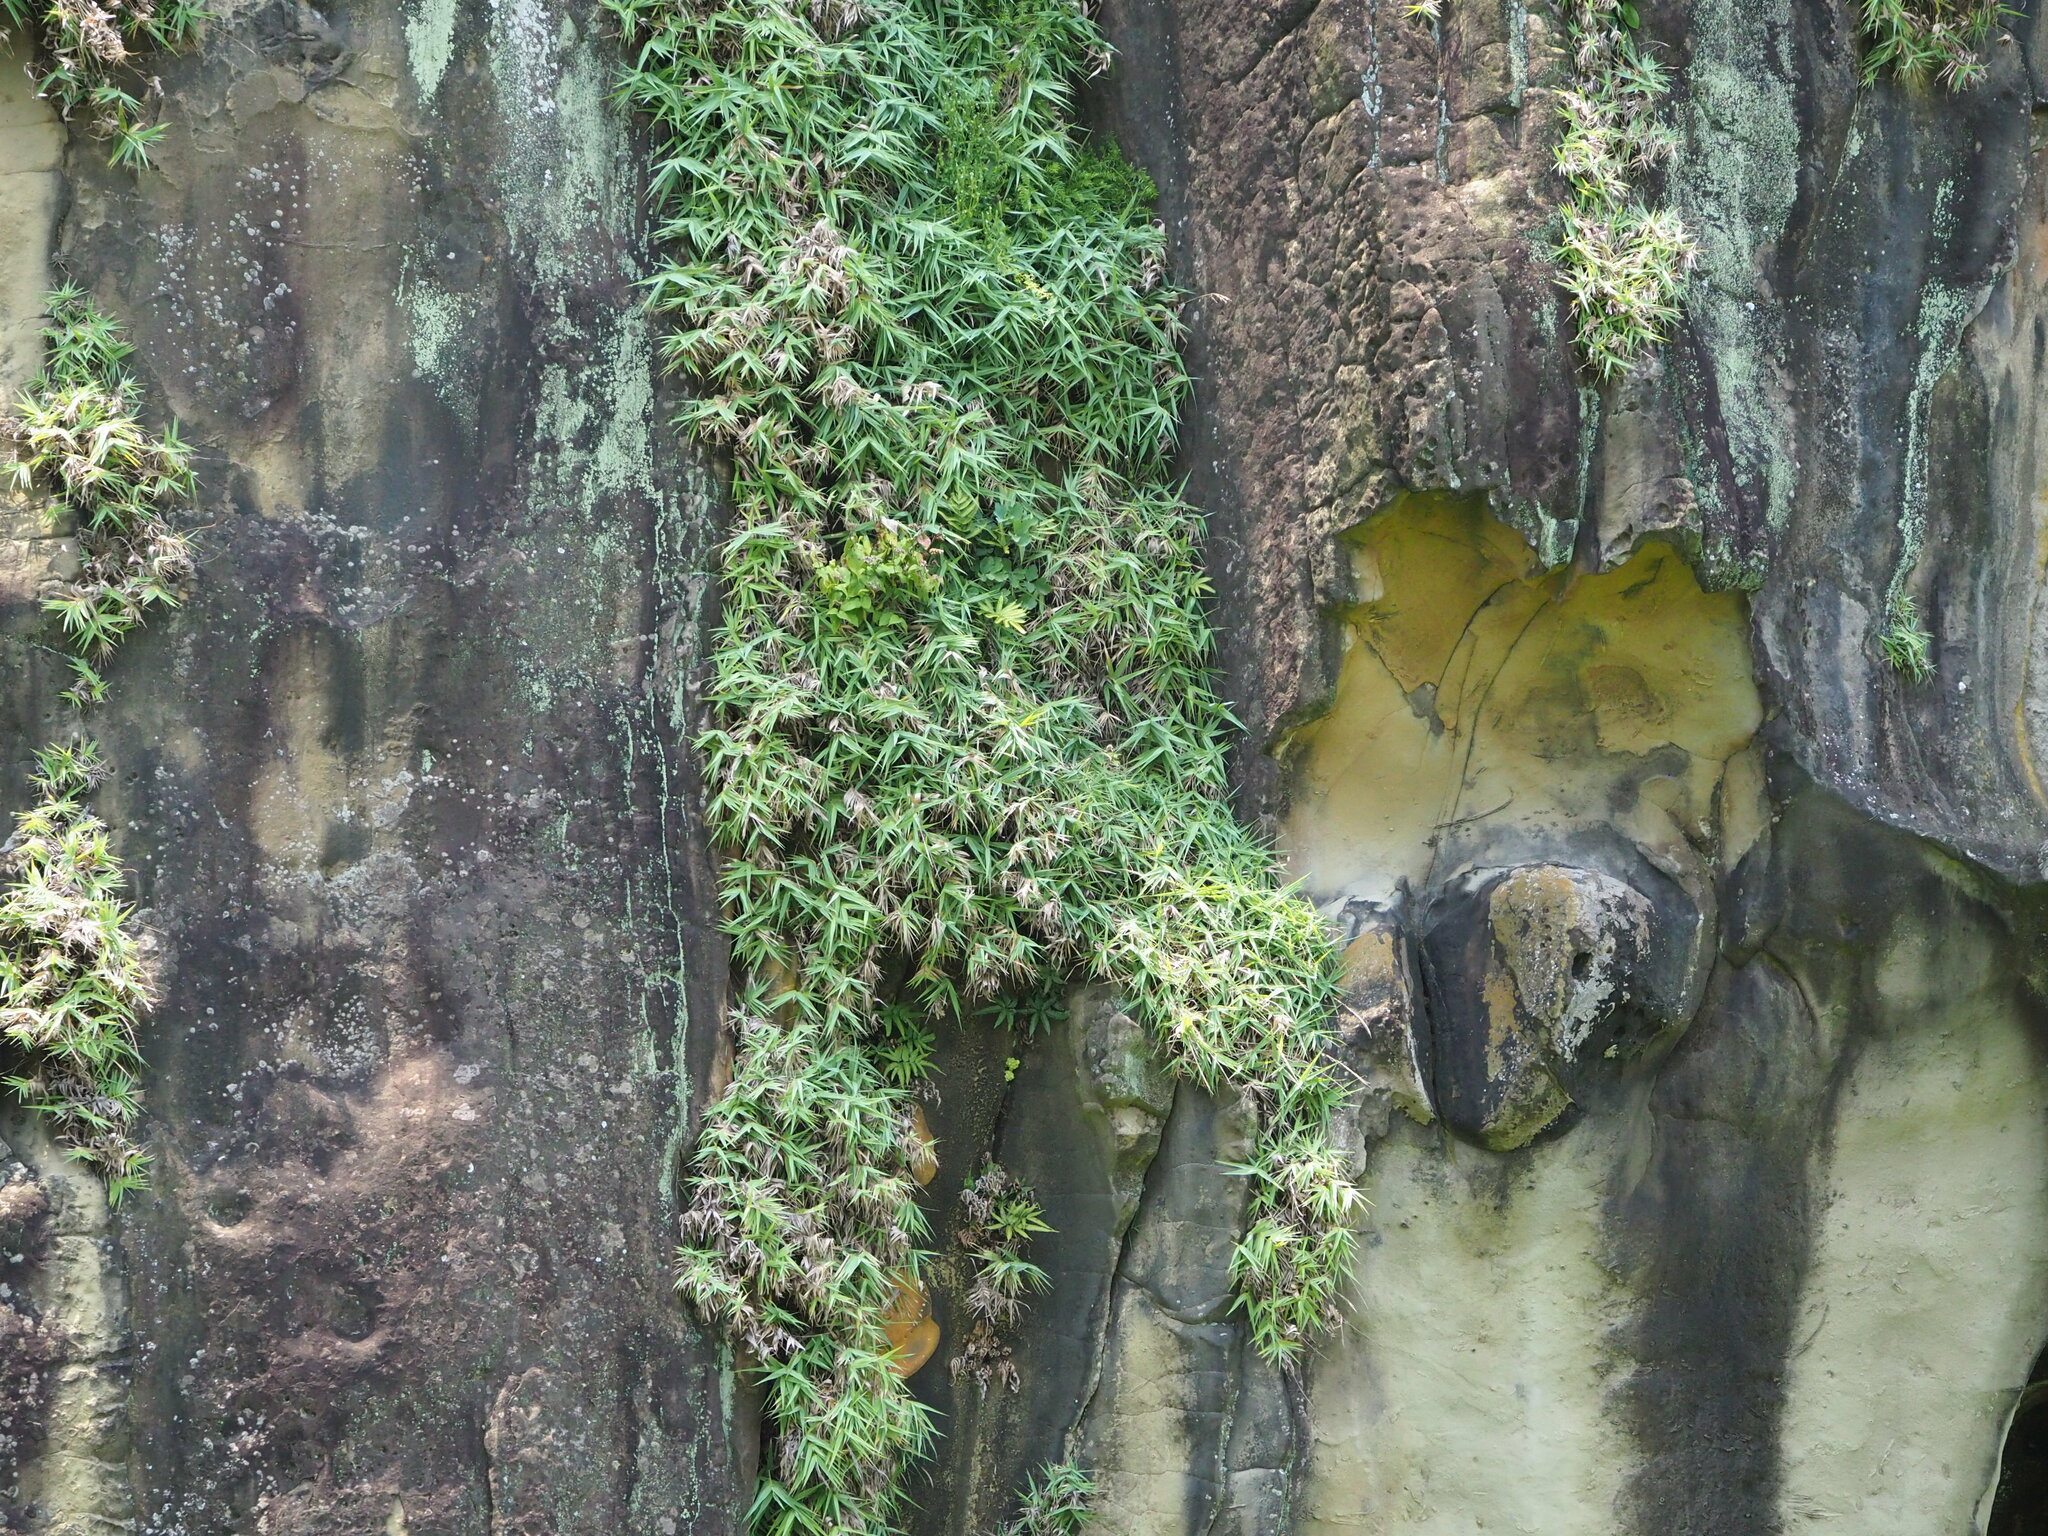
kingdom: Plantae
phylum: Tracheophyta
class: Liliopsida
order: Poales
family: Poaceae
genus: Arundo
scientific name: Arundo formosana
